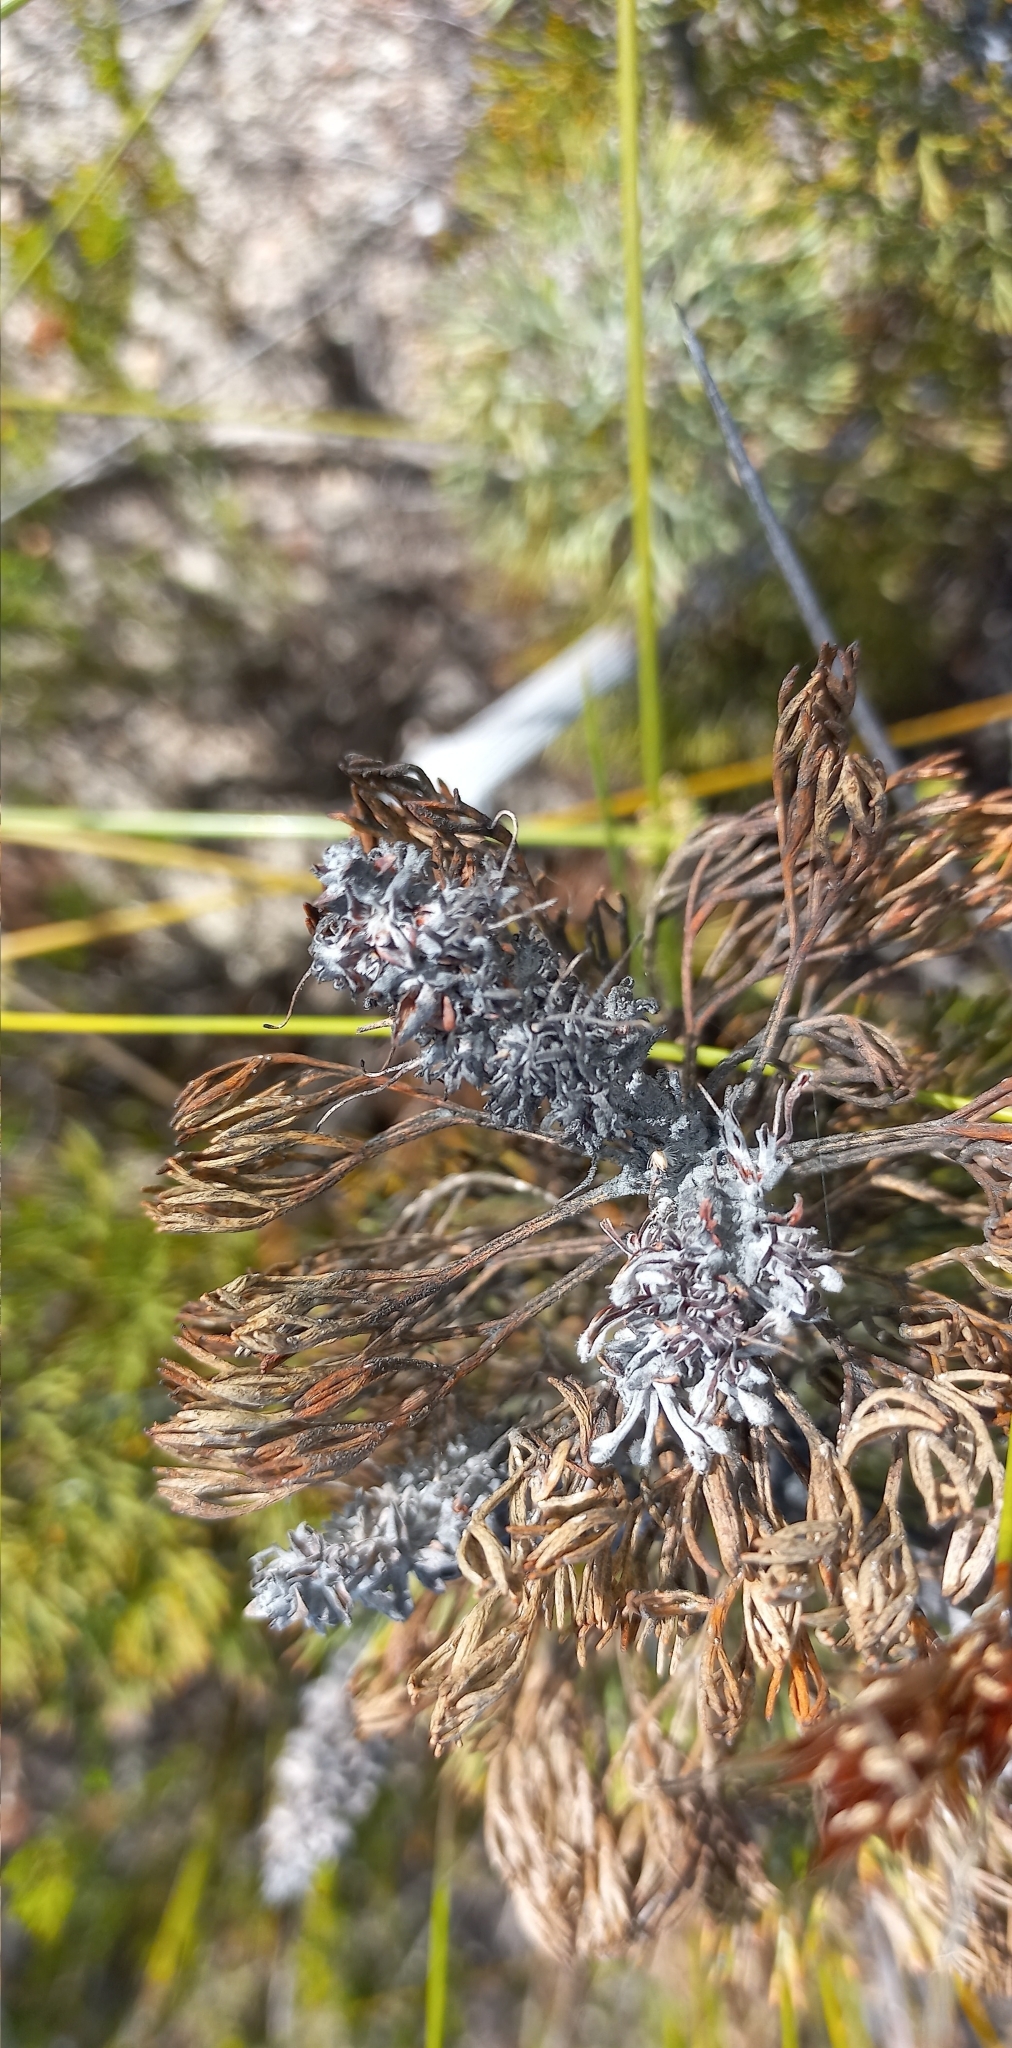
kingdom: Plantae
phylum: Tracheophyta
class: Magnoliopsida
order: Proteales
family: Proteaceae
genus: Paranomus
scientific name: Paranomus bolusii
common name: Overberg sceptre
